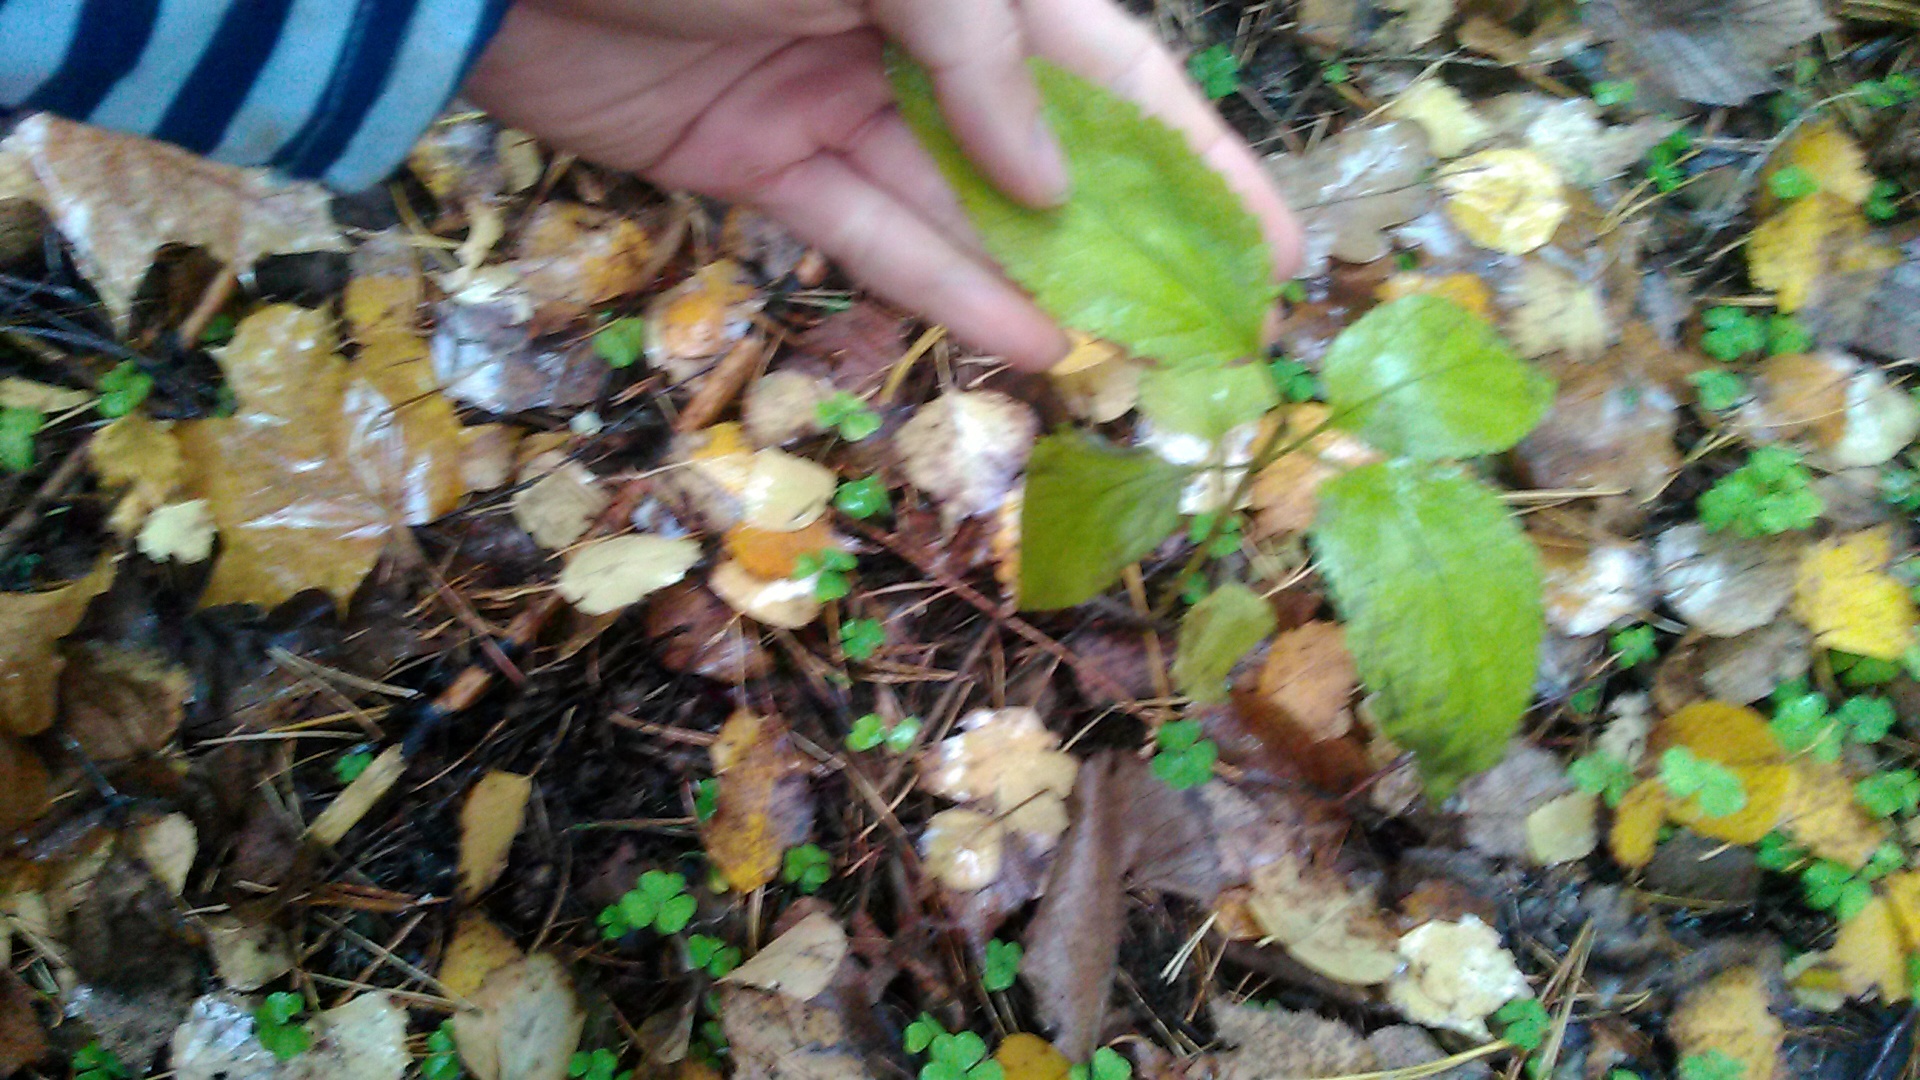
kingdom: Plantae
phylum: Tracheophyta
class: Magnoliopsida
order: Lamiales
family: Scrophulariaceae
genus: Scrophularia
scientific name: Scrophularia nodosa
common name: Common figwort
